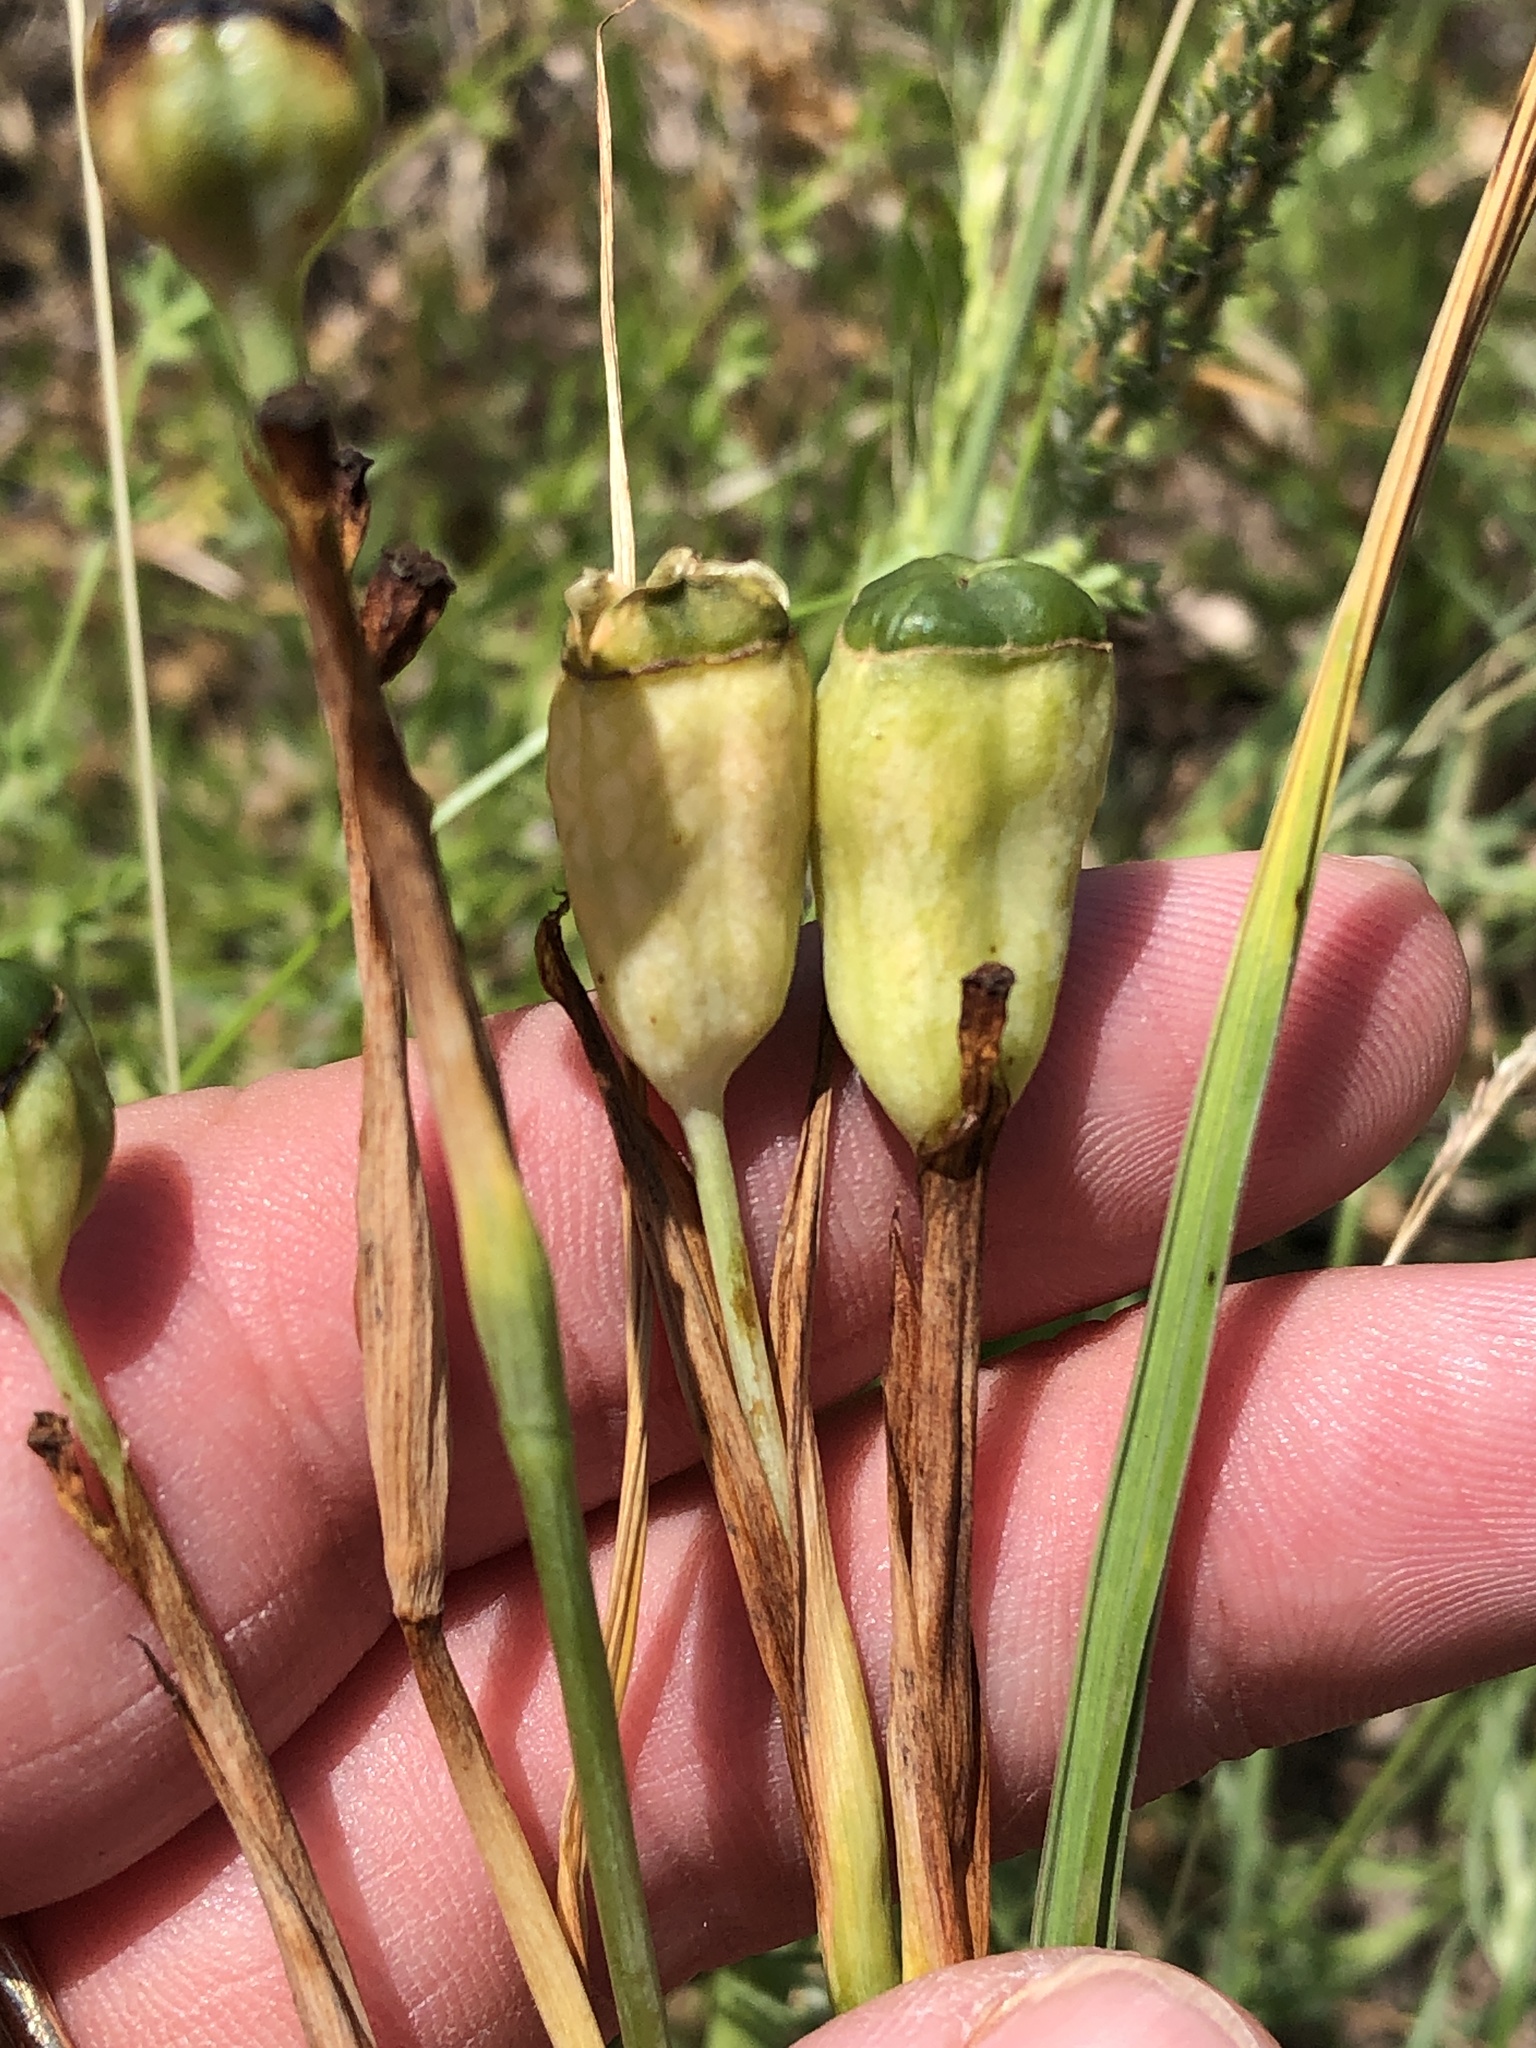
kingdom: Plantae
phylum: Tracheophyta
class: Liliopsida
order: Asparagales
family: Iridaceae
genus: Nemastylis
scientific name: Nemastylis geminiflora
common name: Prairie celestial
